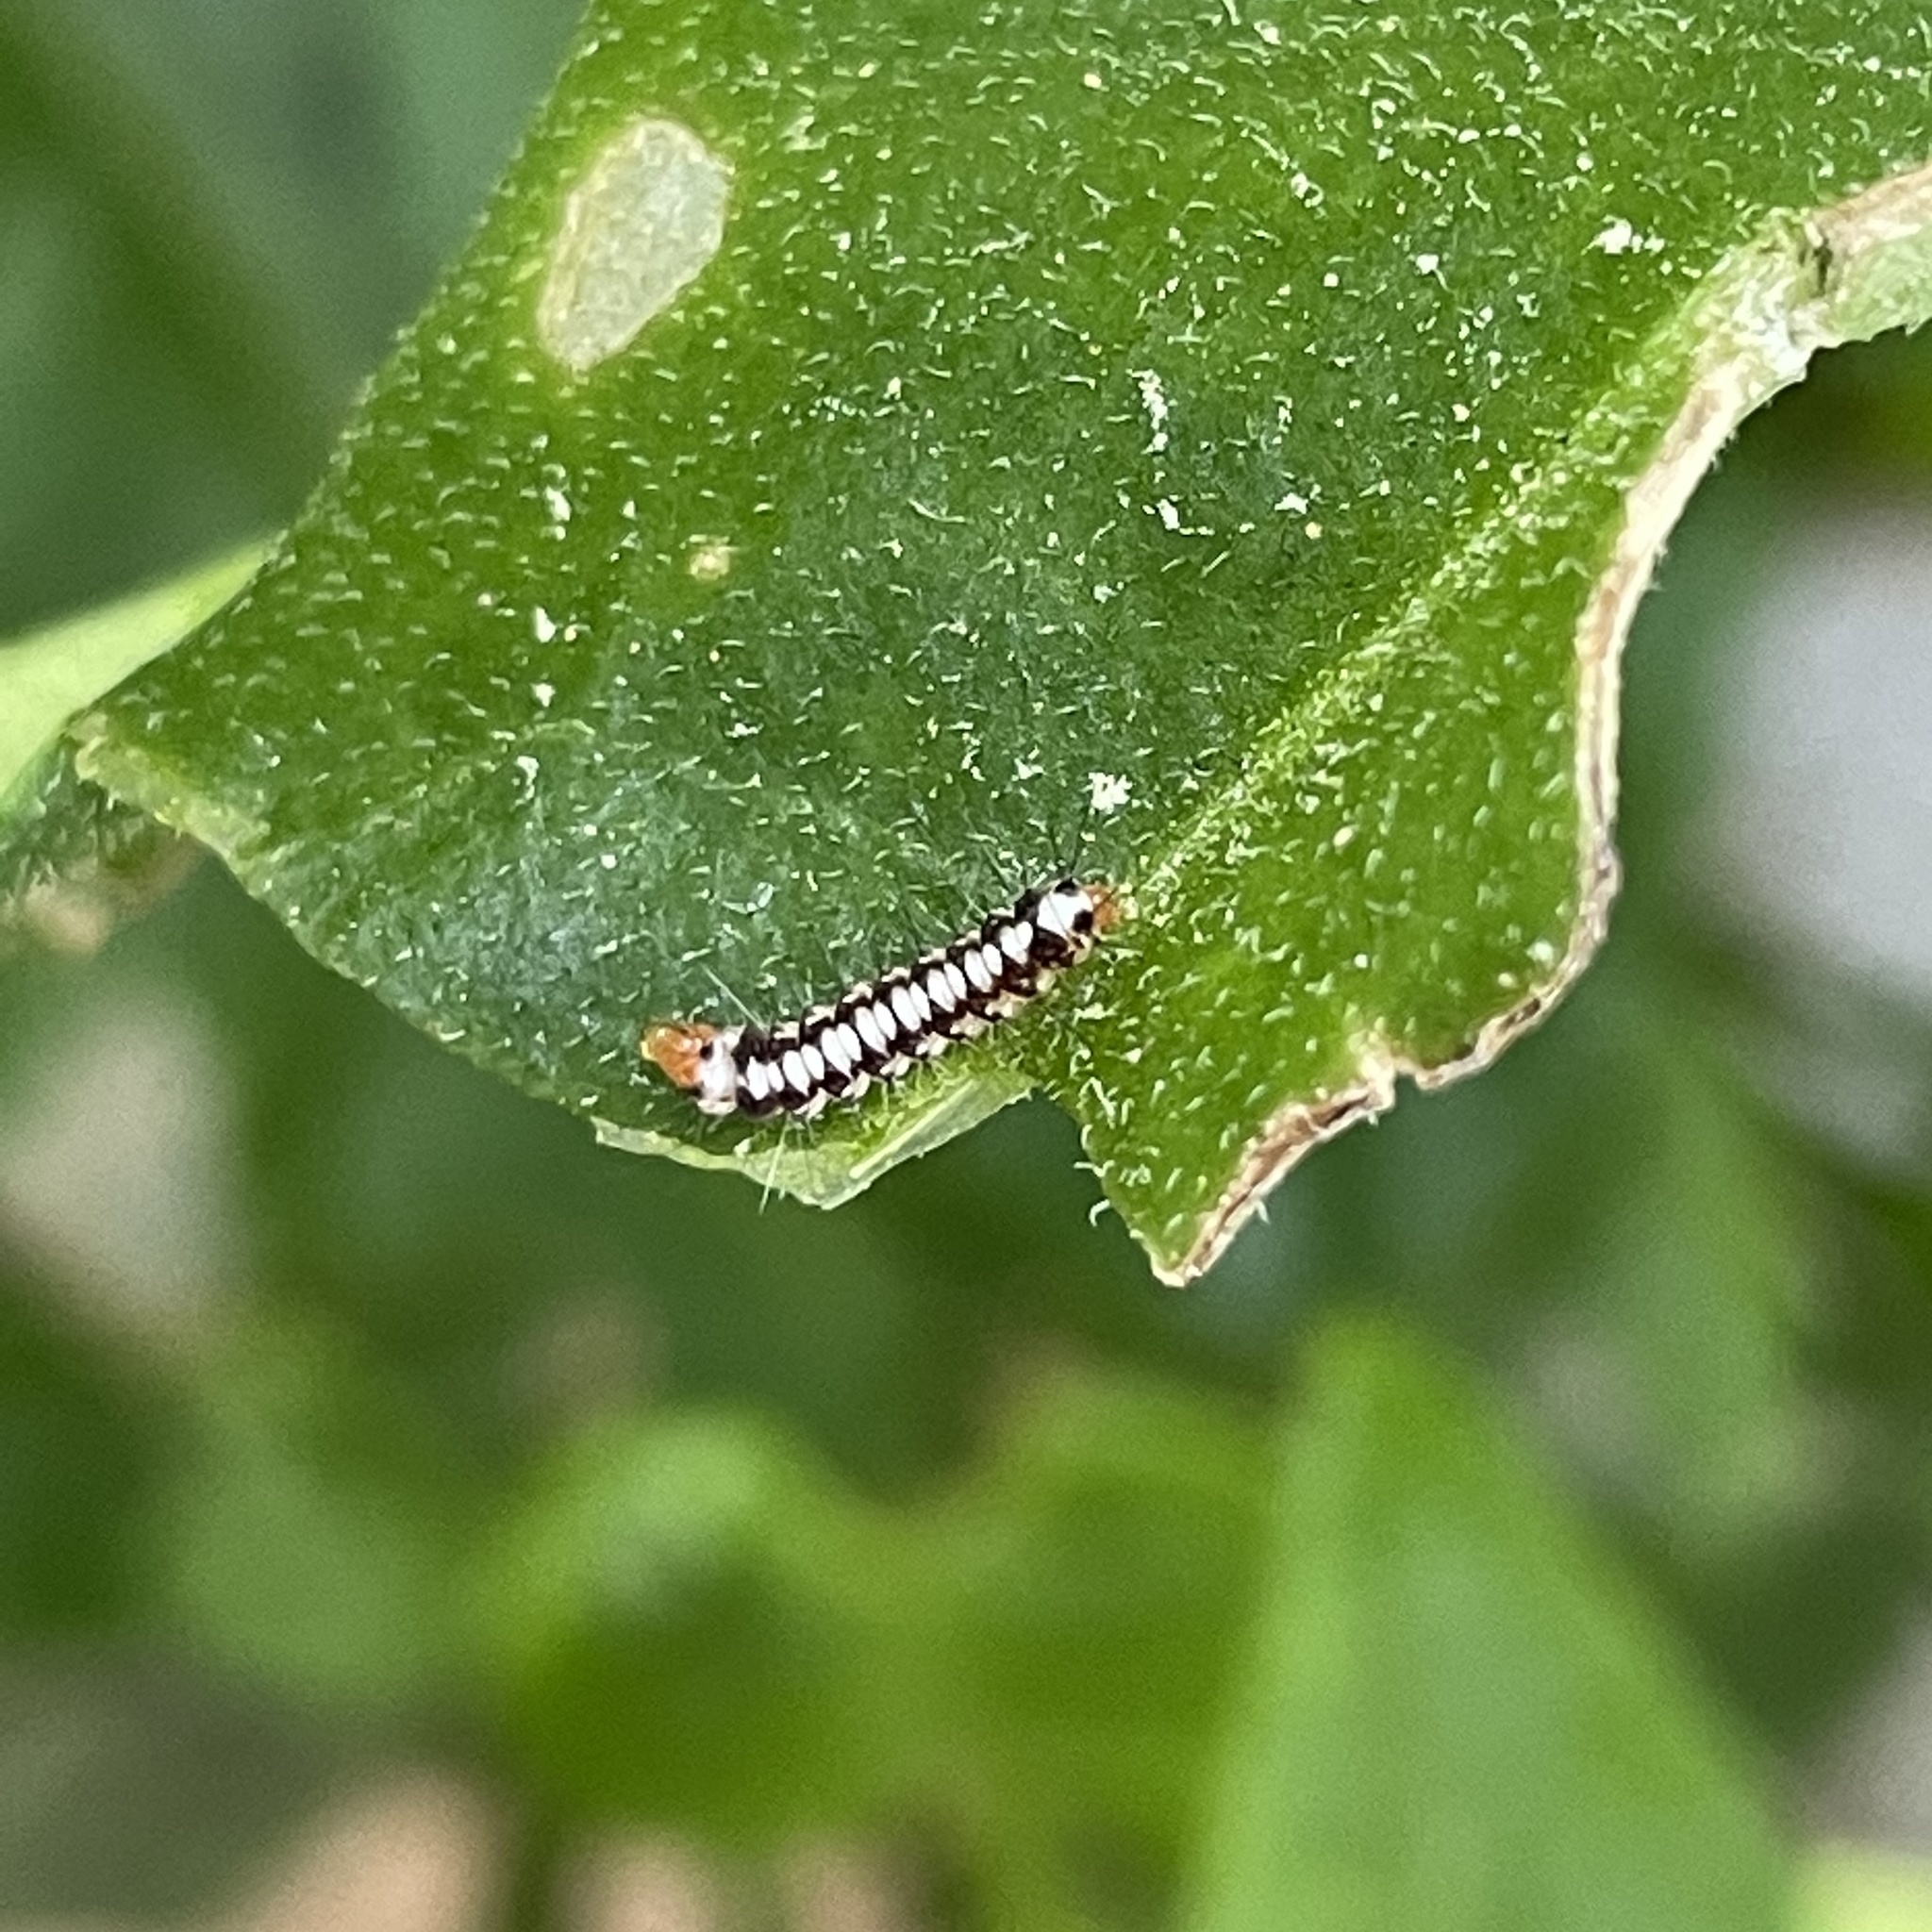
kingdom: Animalia
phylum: Arthropoda
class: Insecta
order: Lepidoptera
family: Erebidae
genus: Nyctemera
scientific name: Nyctemera adversata
